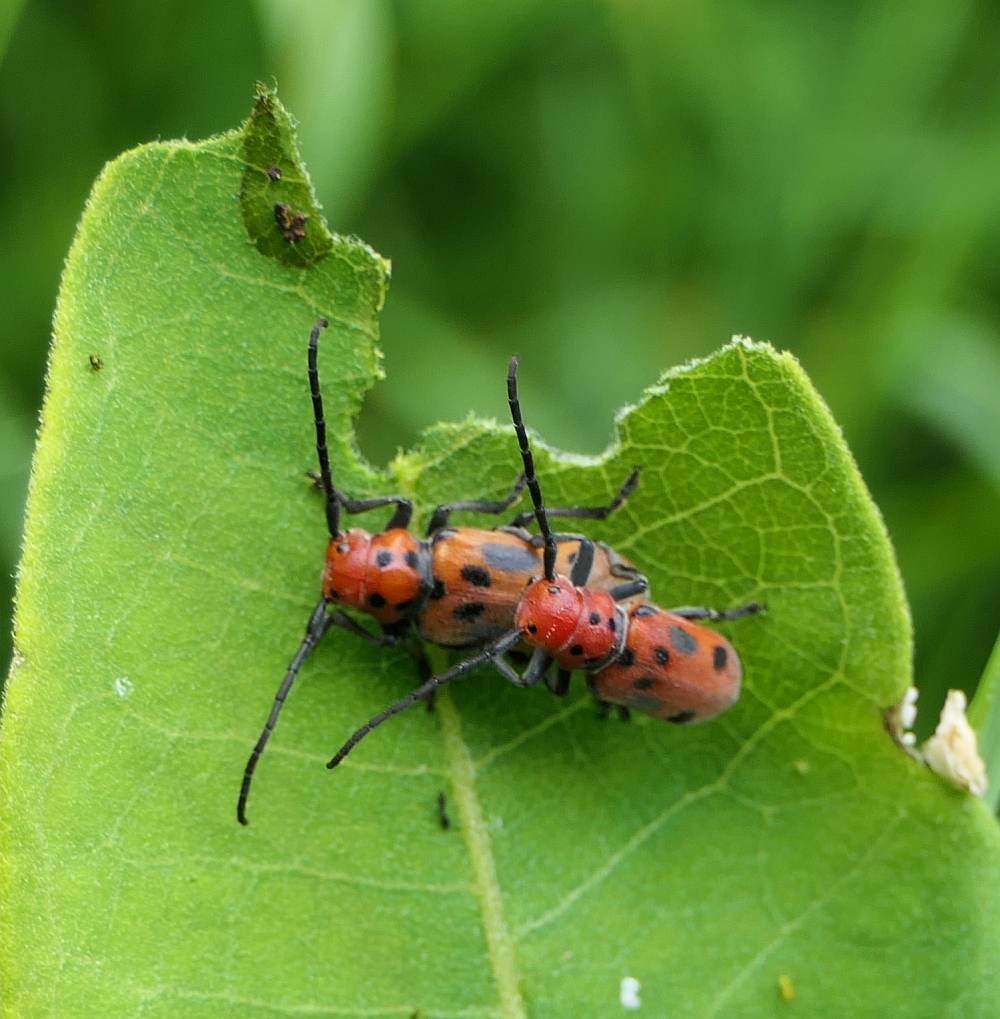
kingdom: Animalia
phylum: Arthropoda
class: Insecta
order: Coleoptera
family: Cerambycidae
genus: Tetraopes
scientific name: Tetraopes tetrophthalmus
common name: Red milkweed beetle
